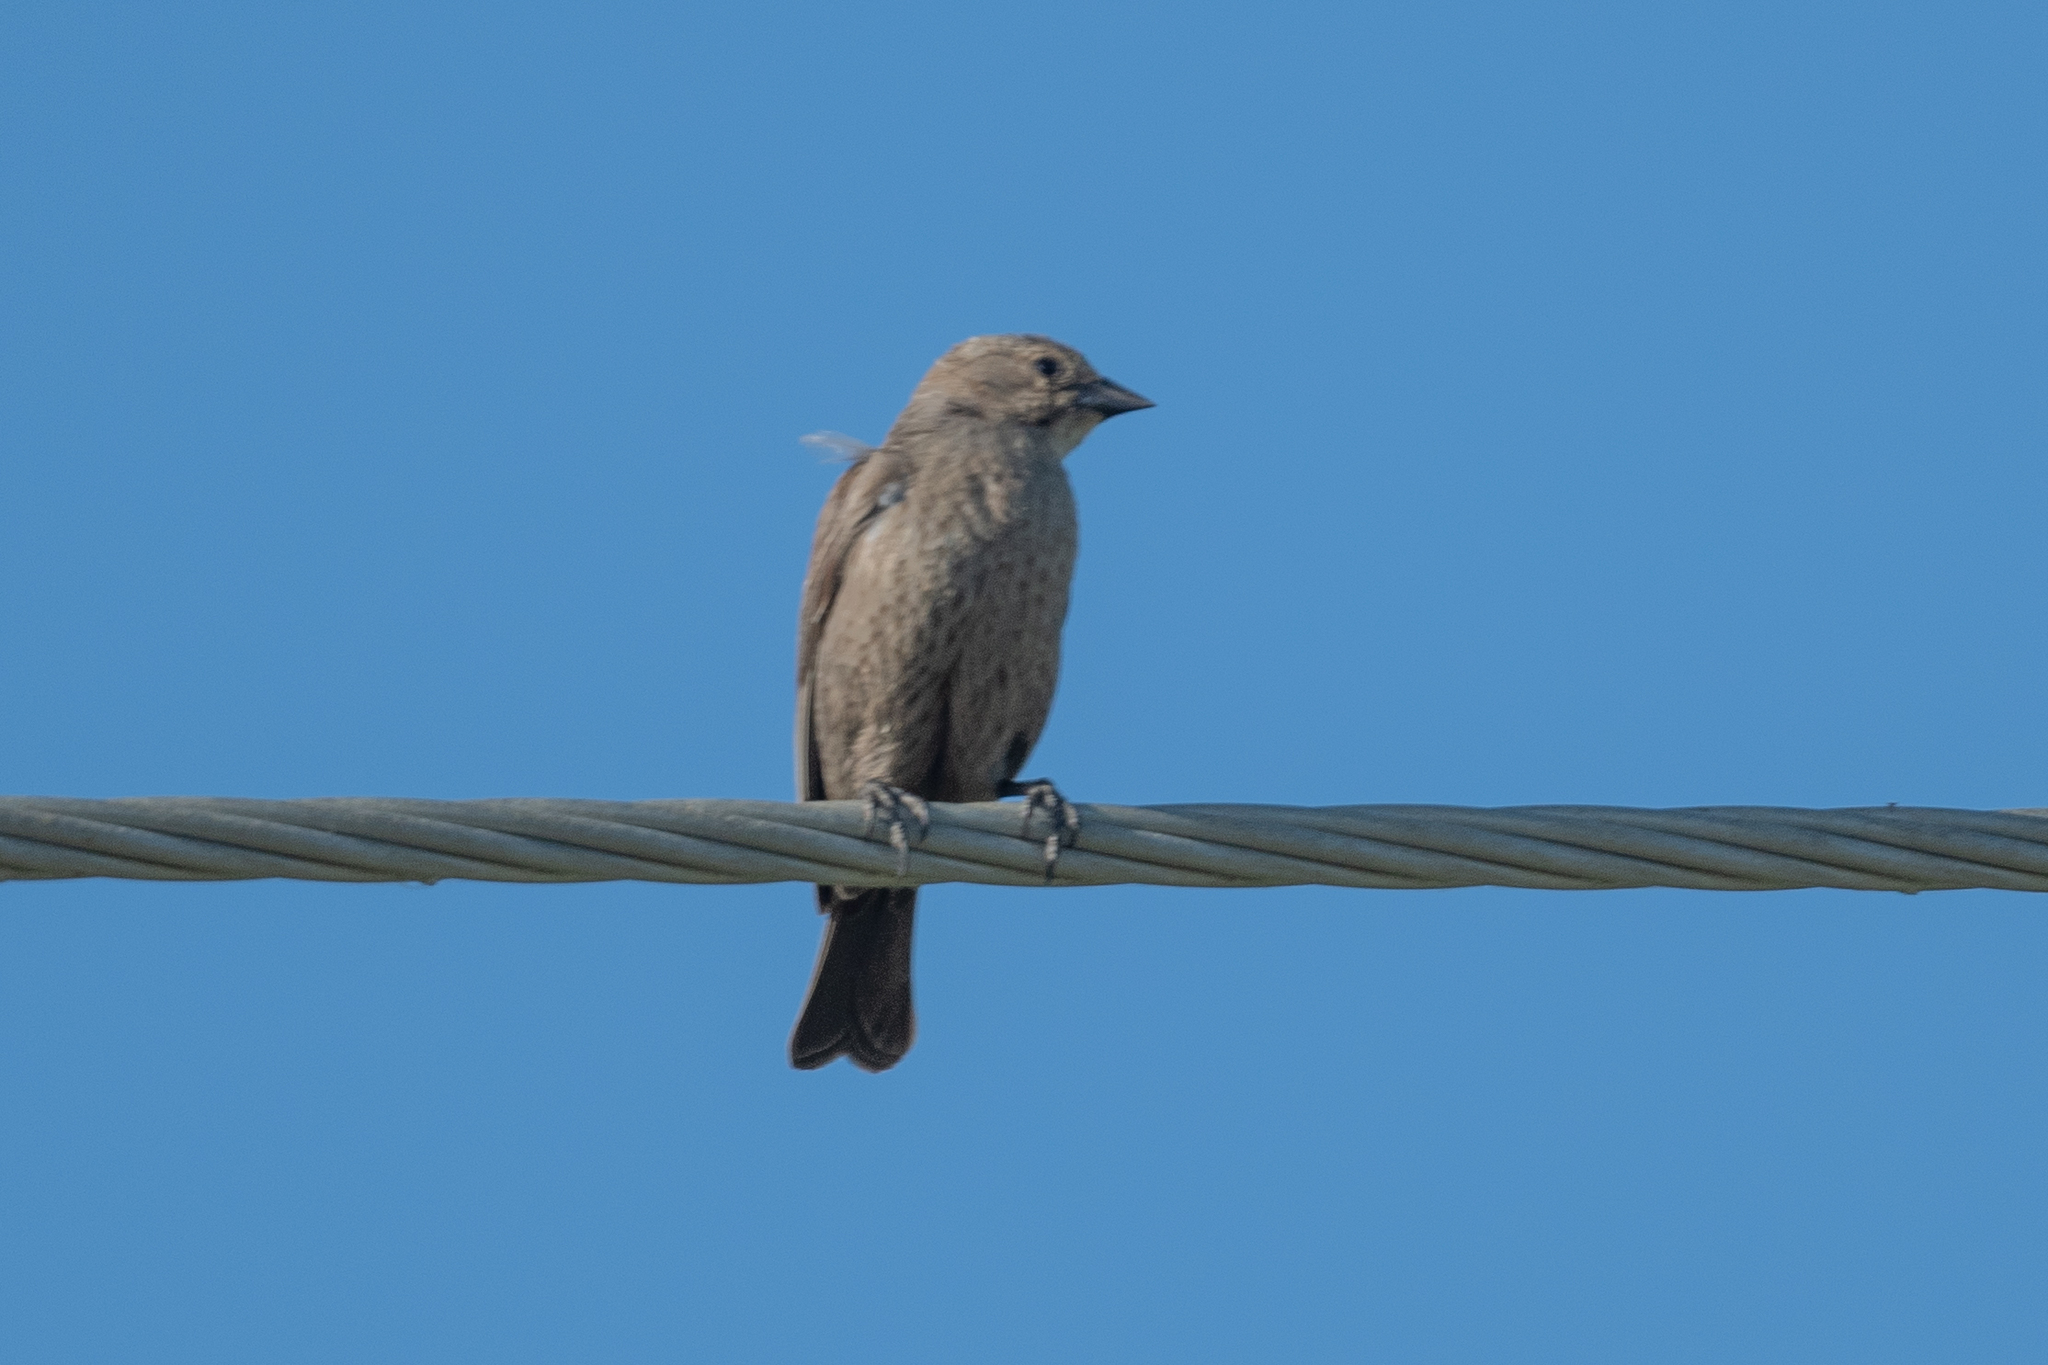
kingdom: Animalia
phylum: Chordata
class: Aves
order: Passeriformes
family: Icteridae
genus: Molothrus
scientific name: Molothrus ater
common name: Brown-headed cowbird
